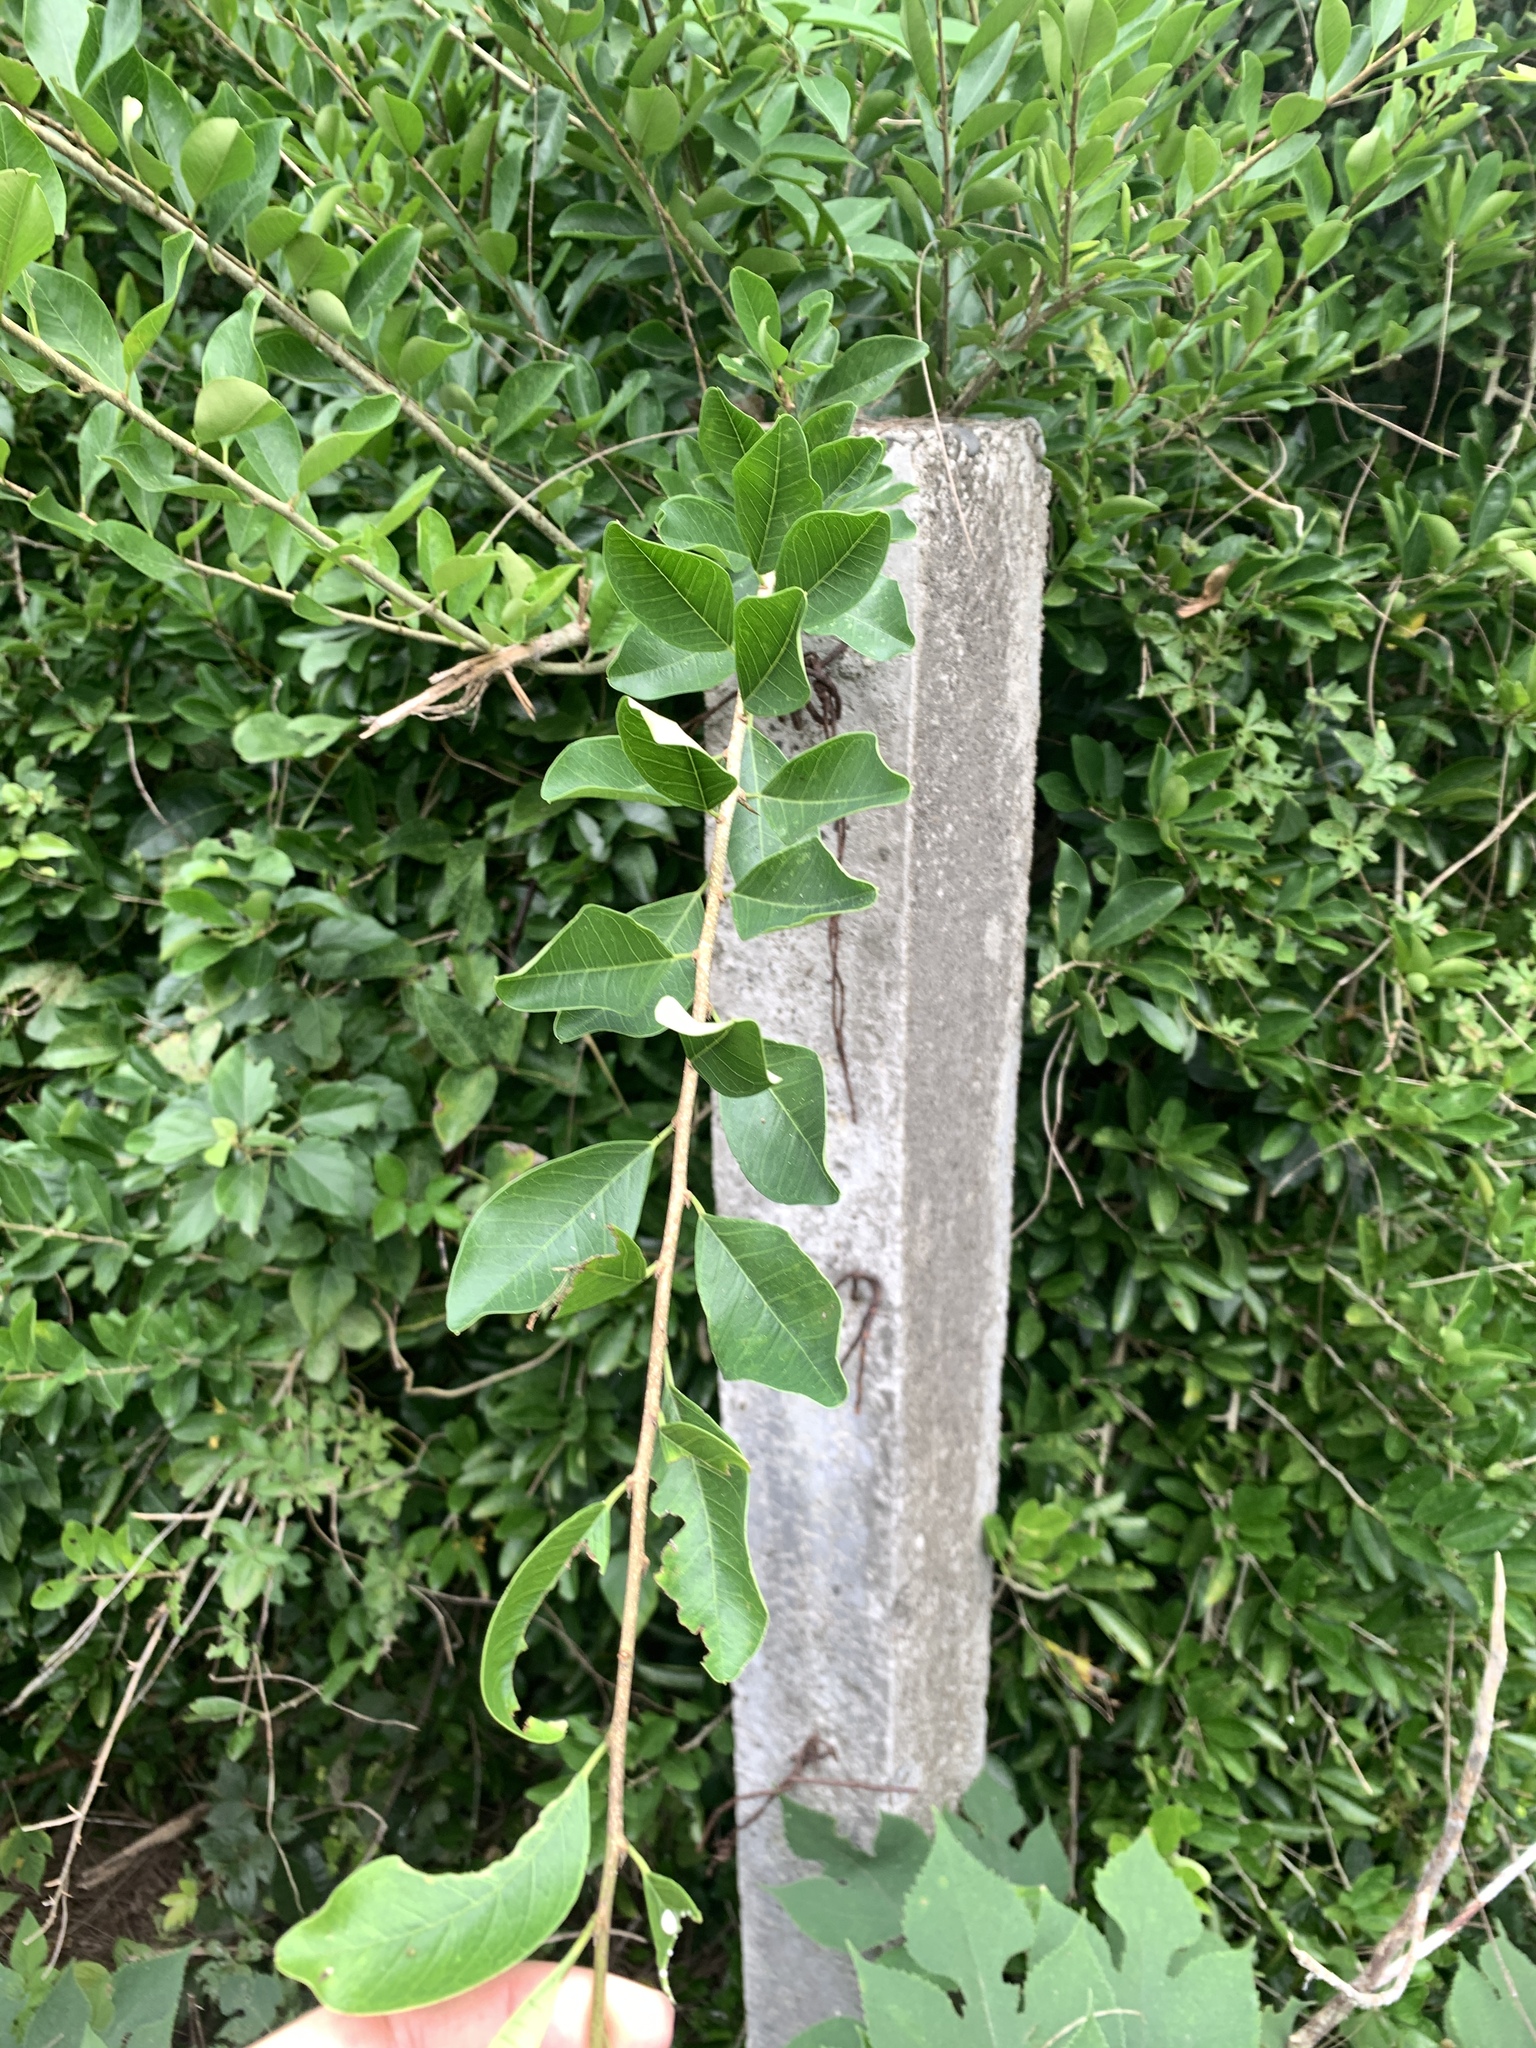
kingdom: Plantae
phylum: Tracheophyta
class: Magnoliopsida
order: Rosales
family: Moraceae
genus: Maclura
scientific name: Maclura cochinchinensis
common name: Cockspurthorn
